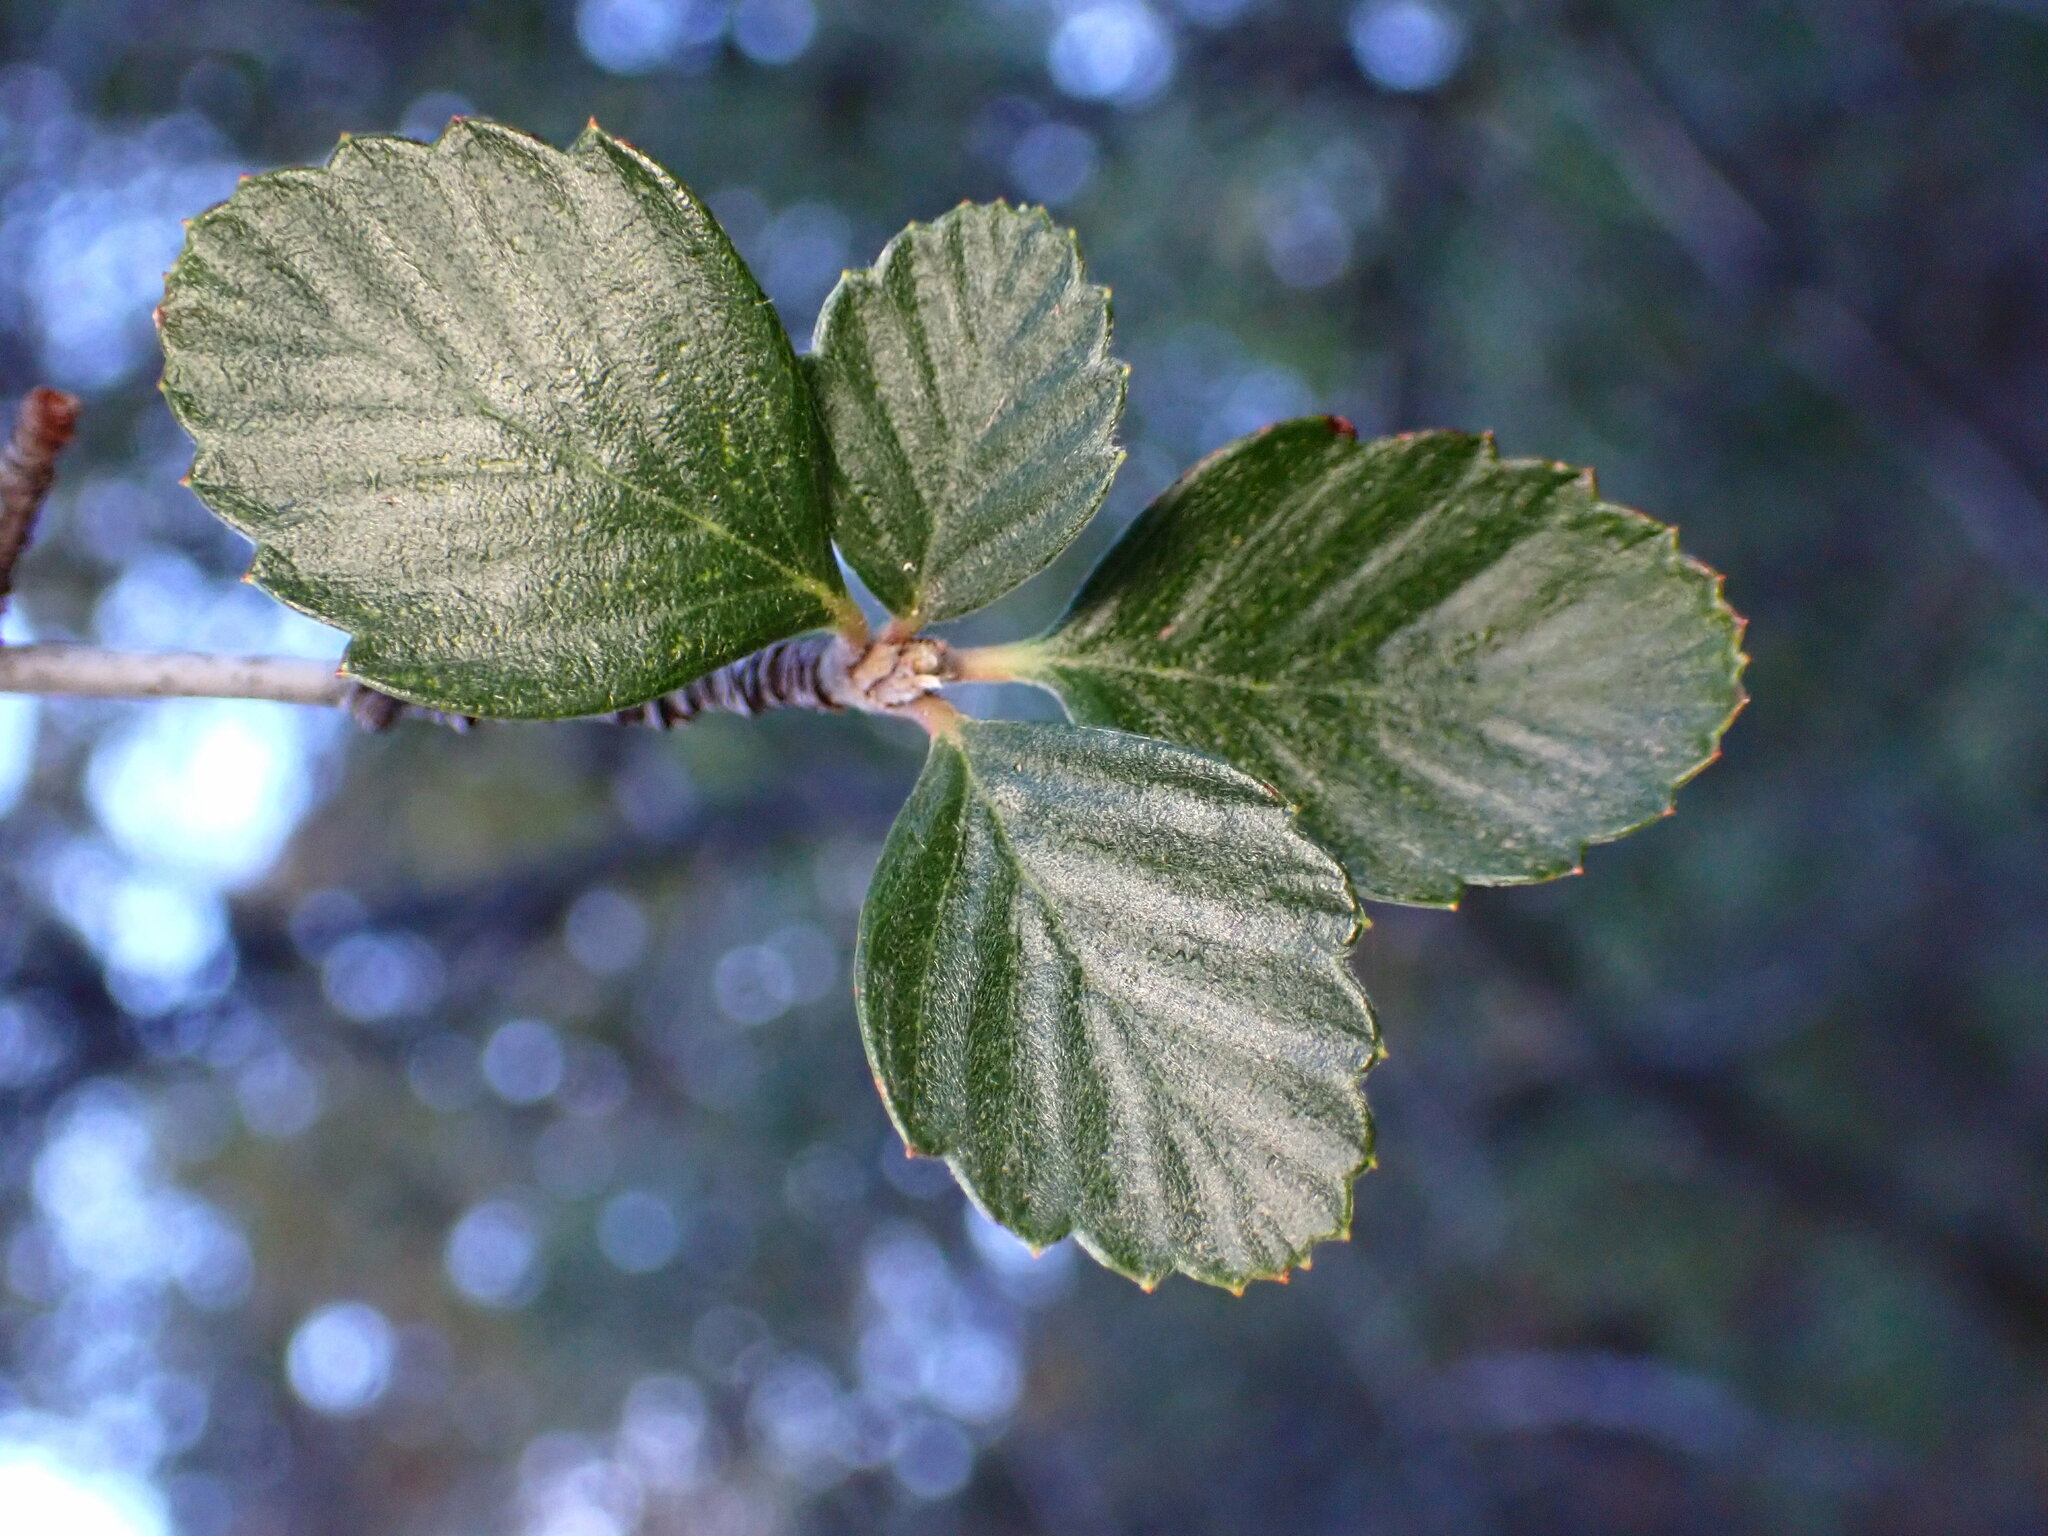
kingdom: Plantae
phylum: Tracheophyta
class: Magnoliopsida
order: Rosales
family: Rosaceae
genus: Cercocarpus
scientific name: Cercocarpus betuloides
